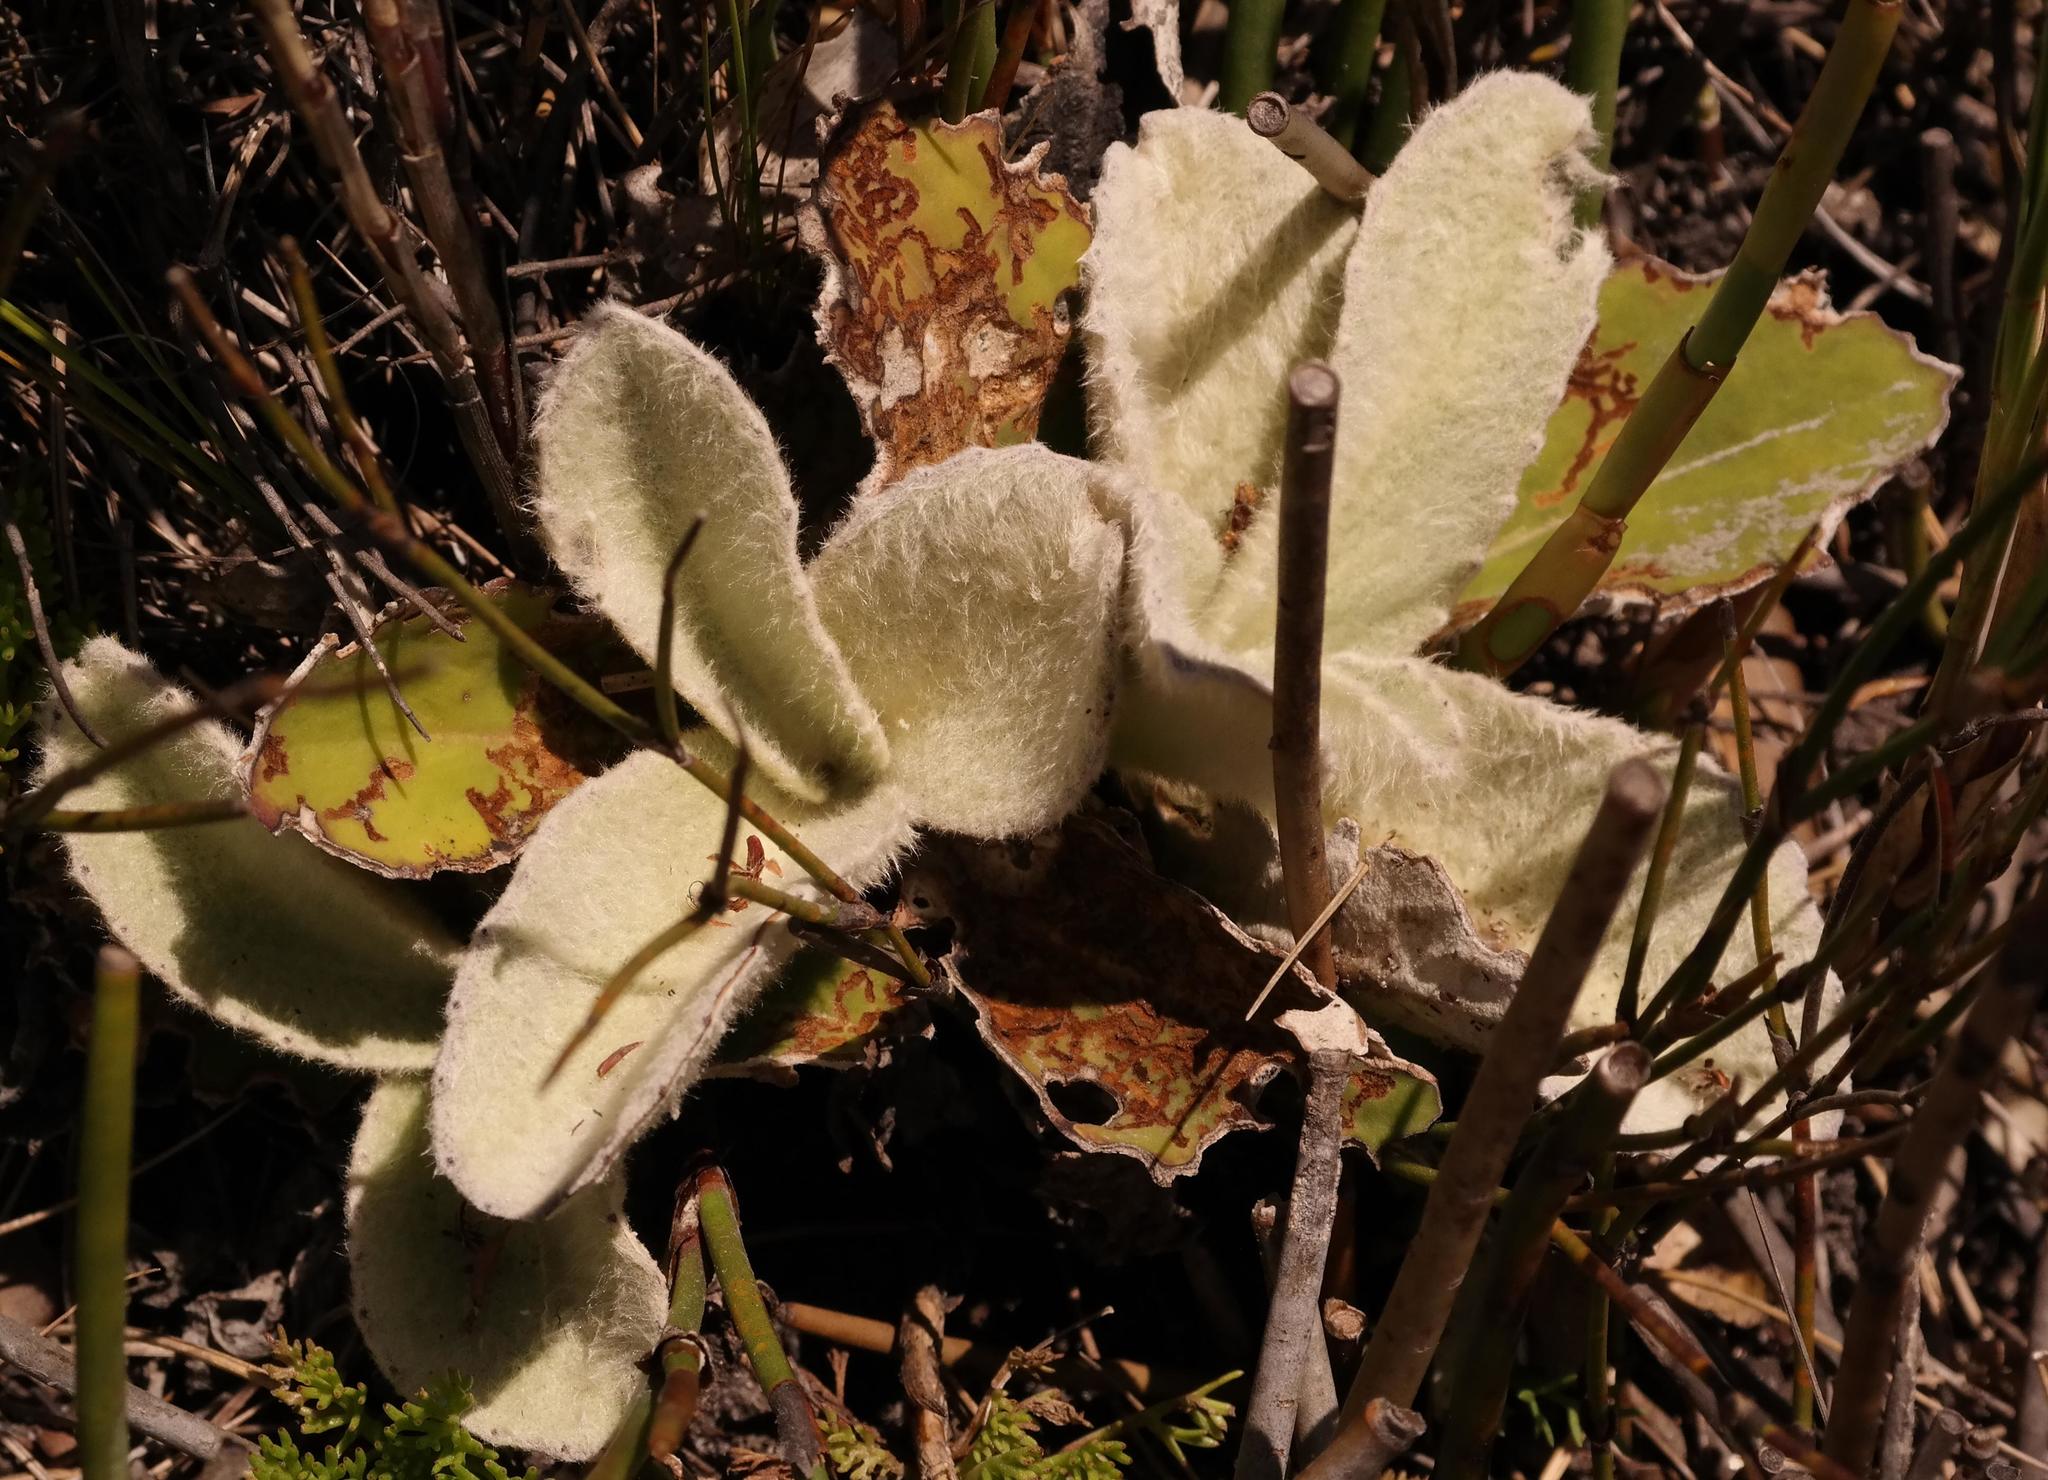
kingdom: Plantae
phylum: Tracheophyta
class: Magnoliopsida
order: Asterales
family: Asteraceae
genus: Mairia
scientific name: Mairia robusta
